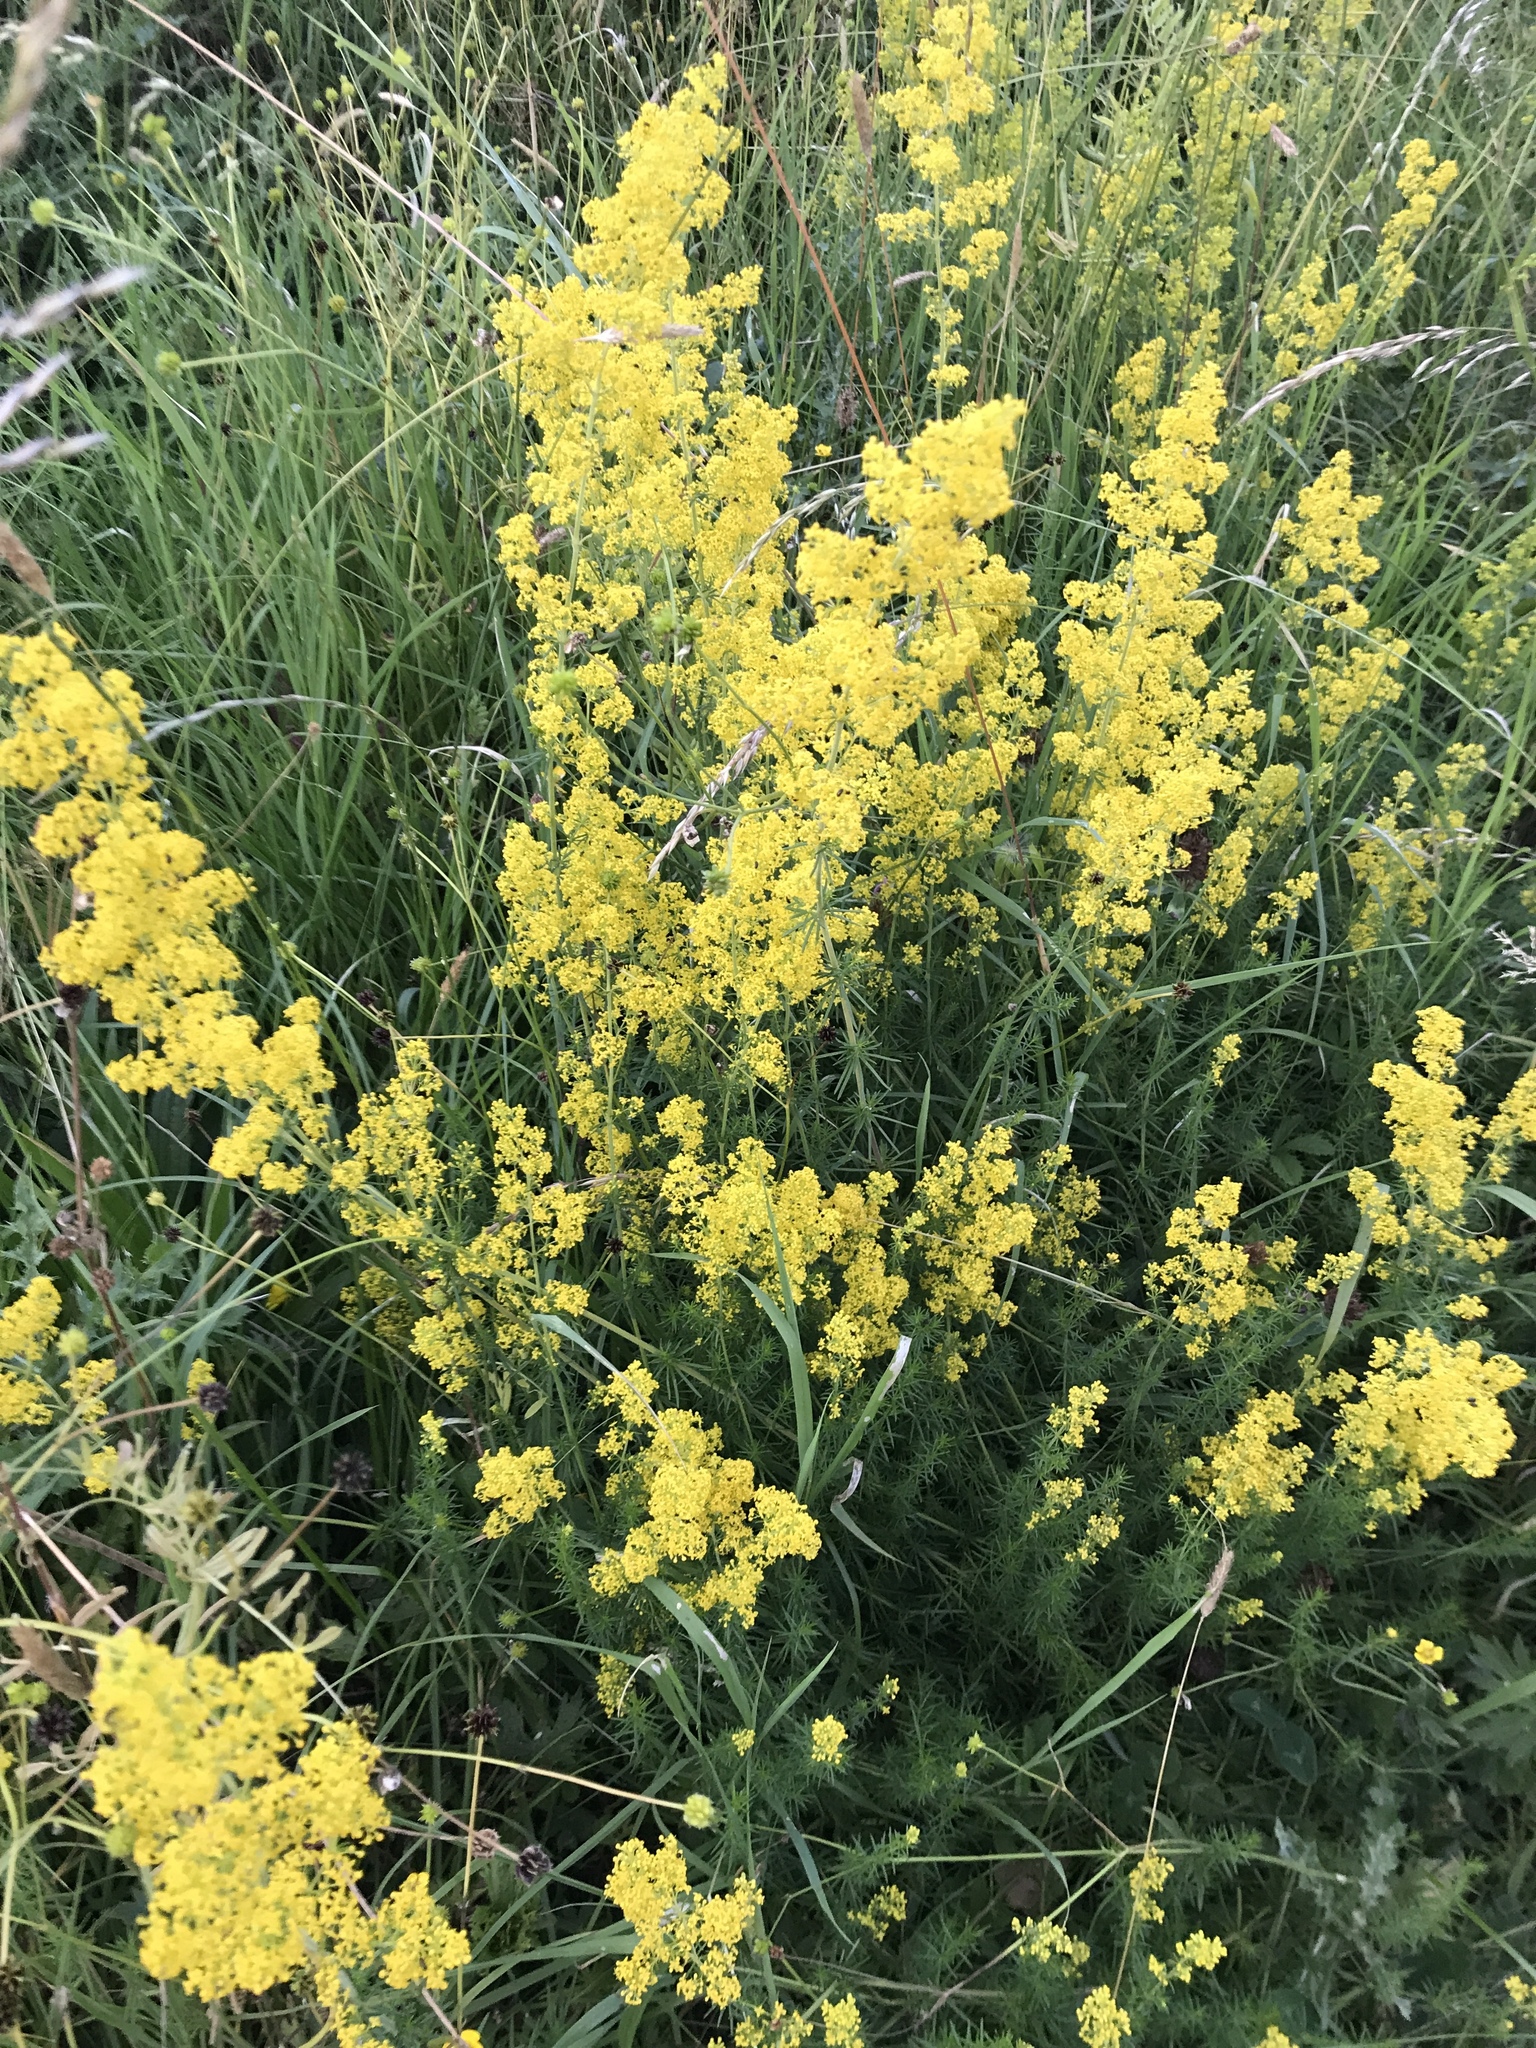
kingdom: Plantae
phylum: Tracheophyta
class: Magnoliopsida
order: Gentianales
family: Rubiaceae
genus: Galium
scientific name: Galium verum
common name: Lady's bedstraw
